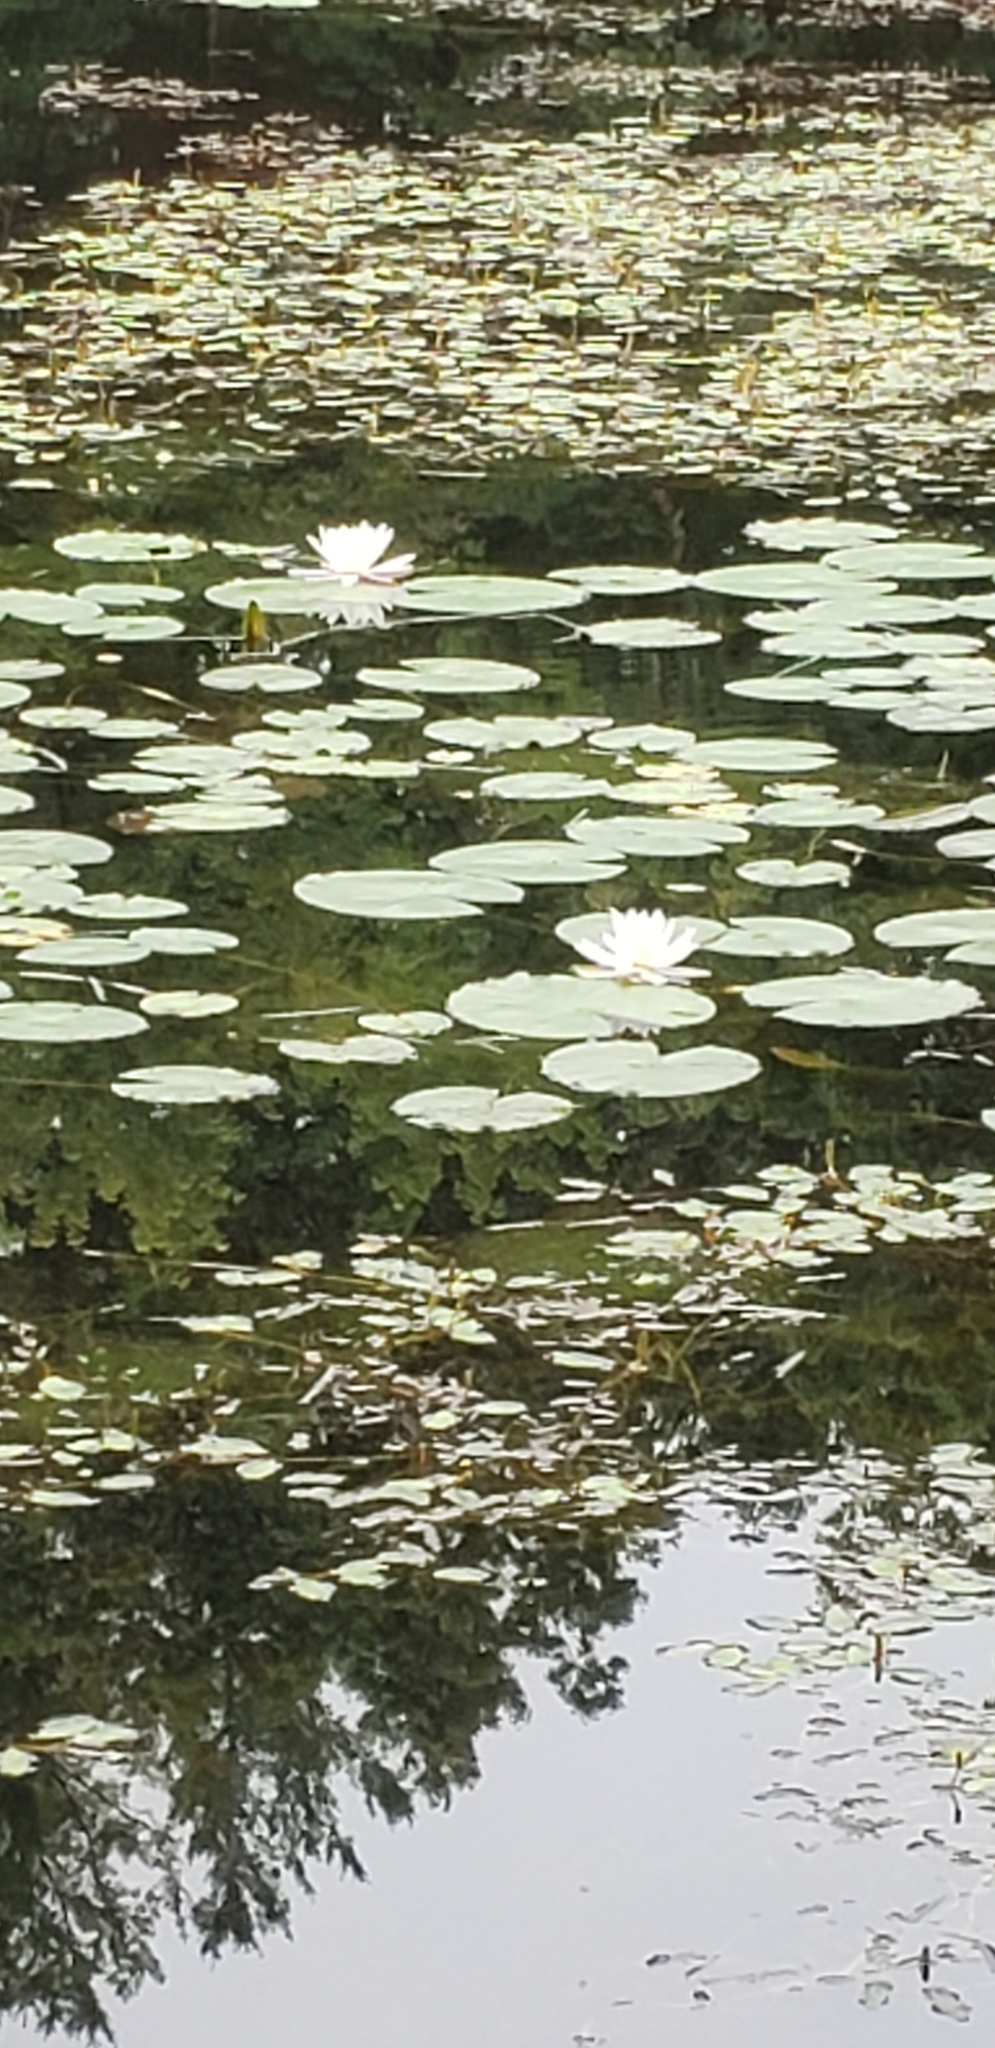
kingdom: Plantae
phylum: Tracheophyta
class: Magnoliopsida
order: Nymphaeales
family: Nymphaeaceae
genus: Nymphaea
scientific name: Nymphaea odorata
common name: Fragrant water-lily
